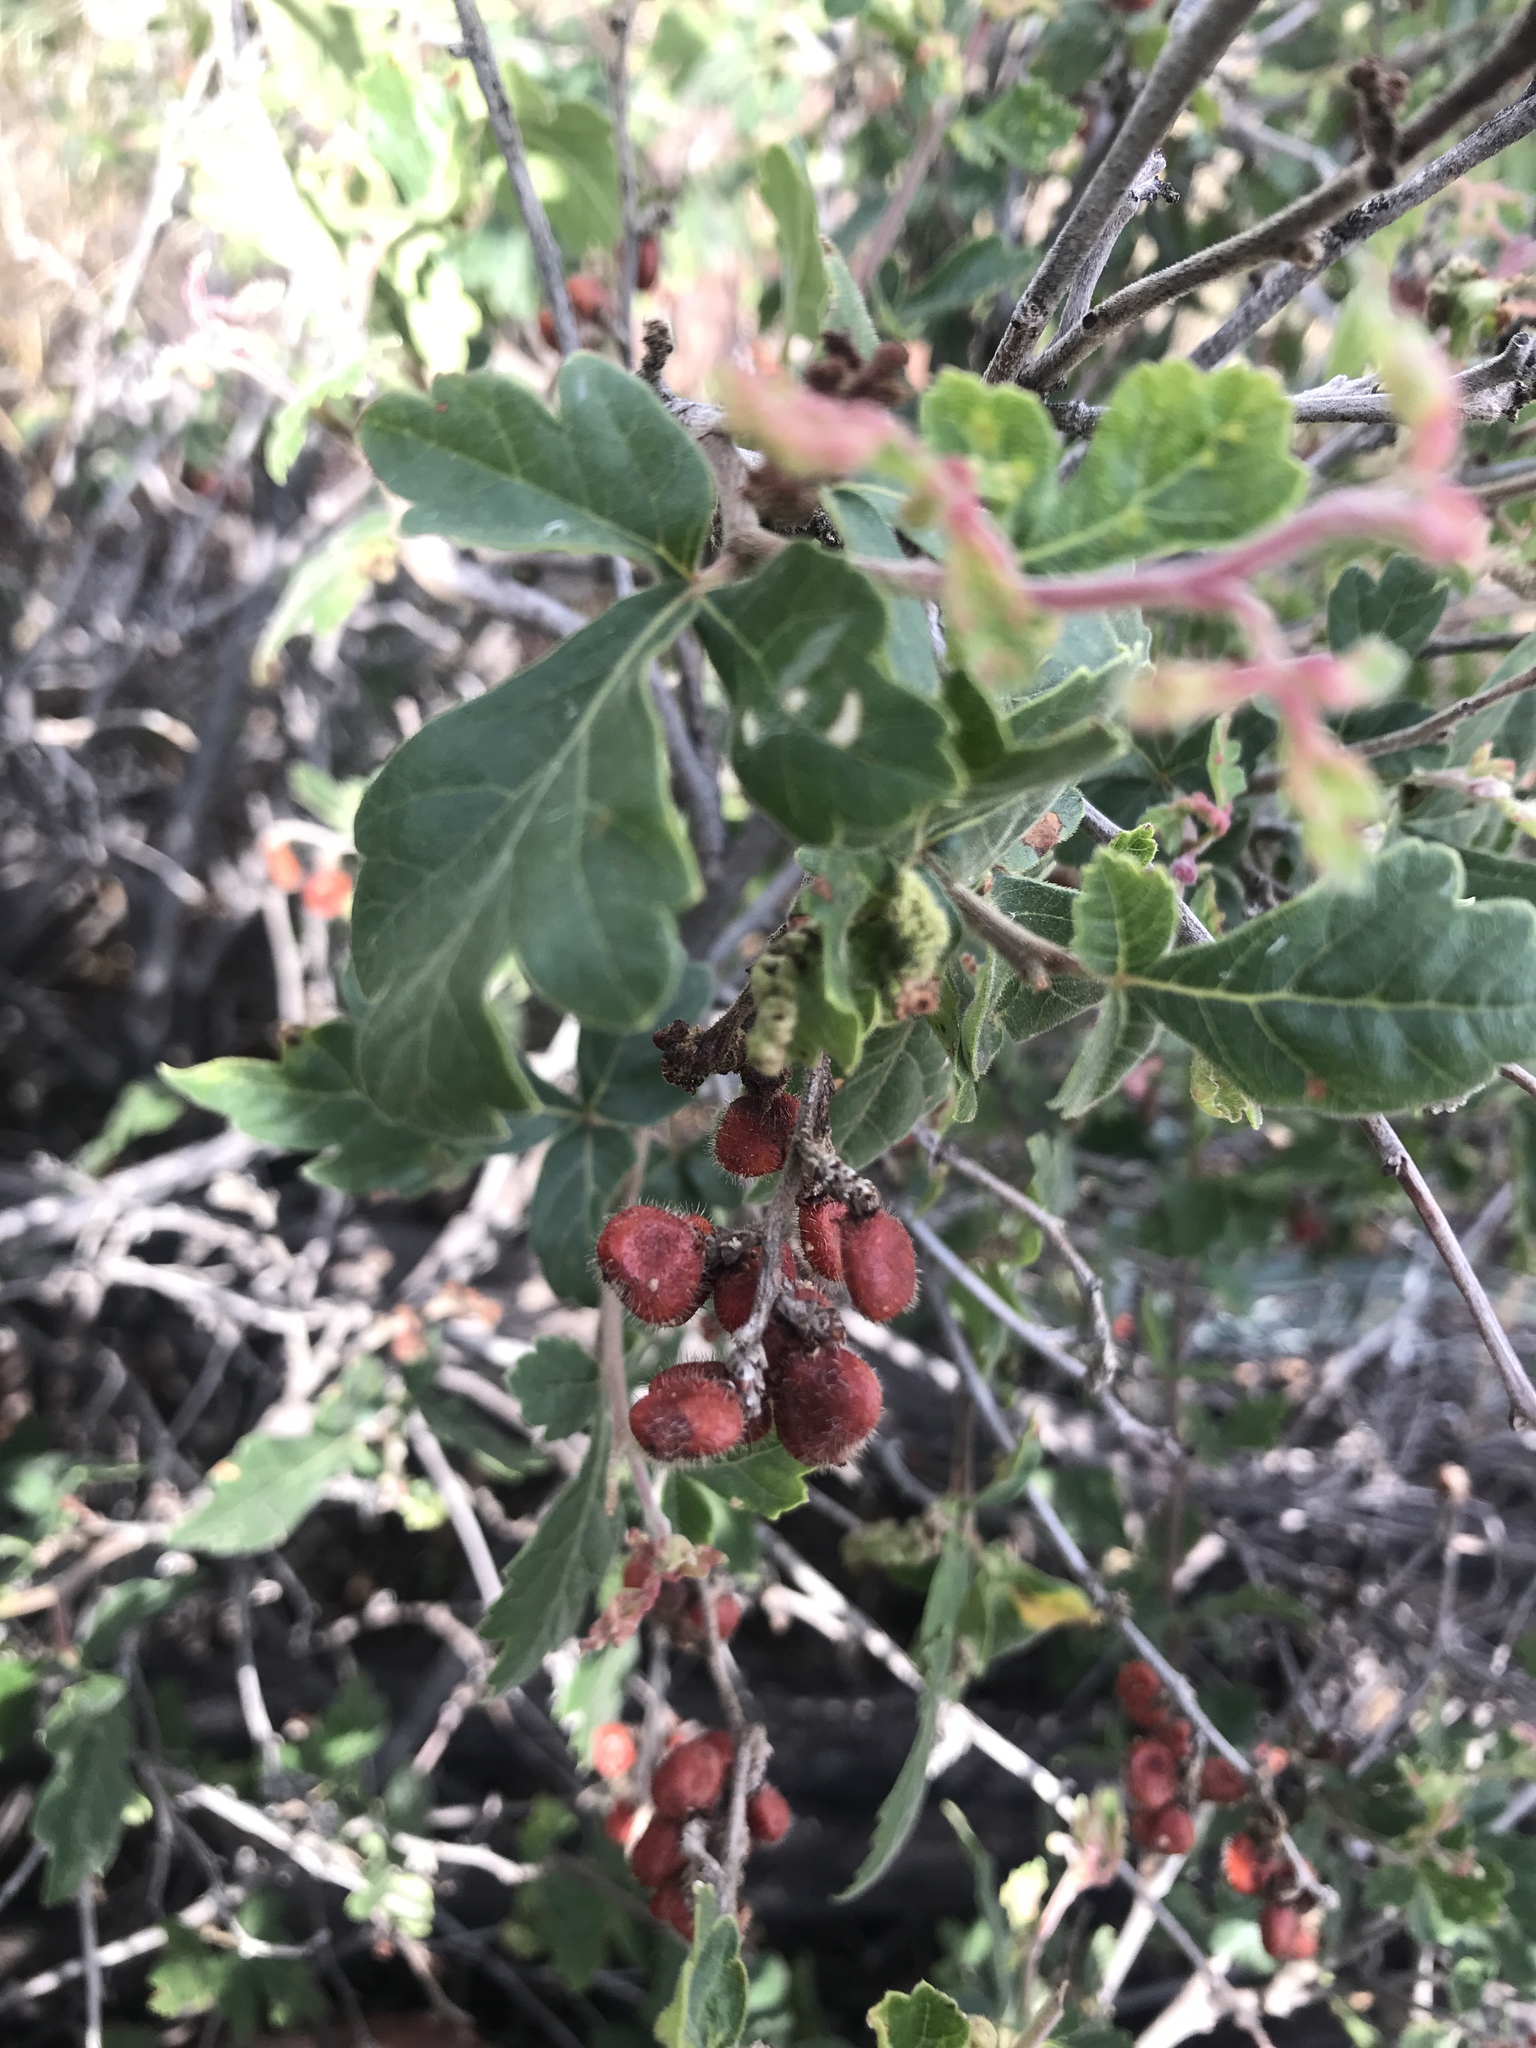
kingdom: Plantae
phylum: Tracheophyta
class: Magnoliopsida
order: Sapindales
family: Anacardiaceae
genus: Rhus
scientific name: Rhus aromatica
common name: Aromatic sumac
